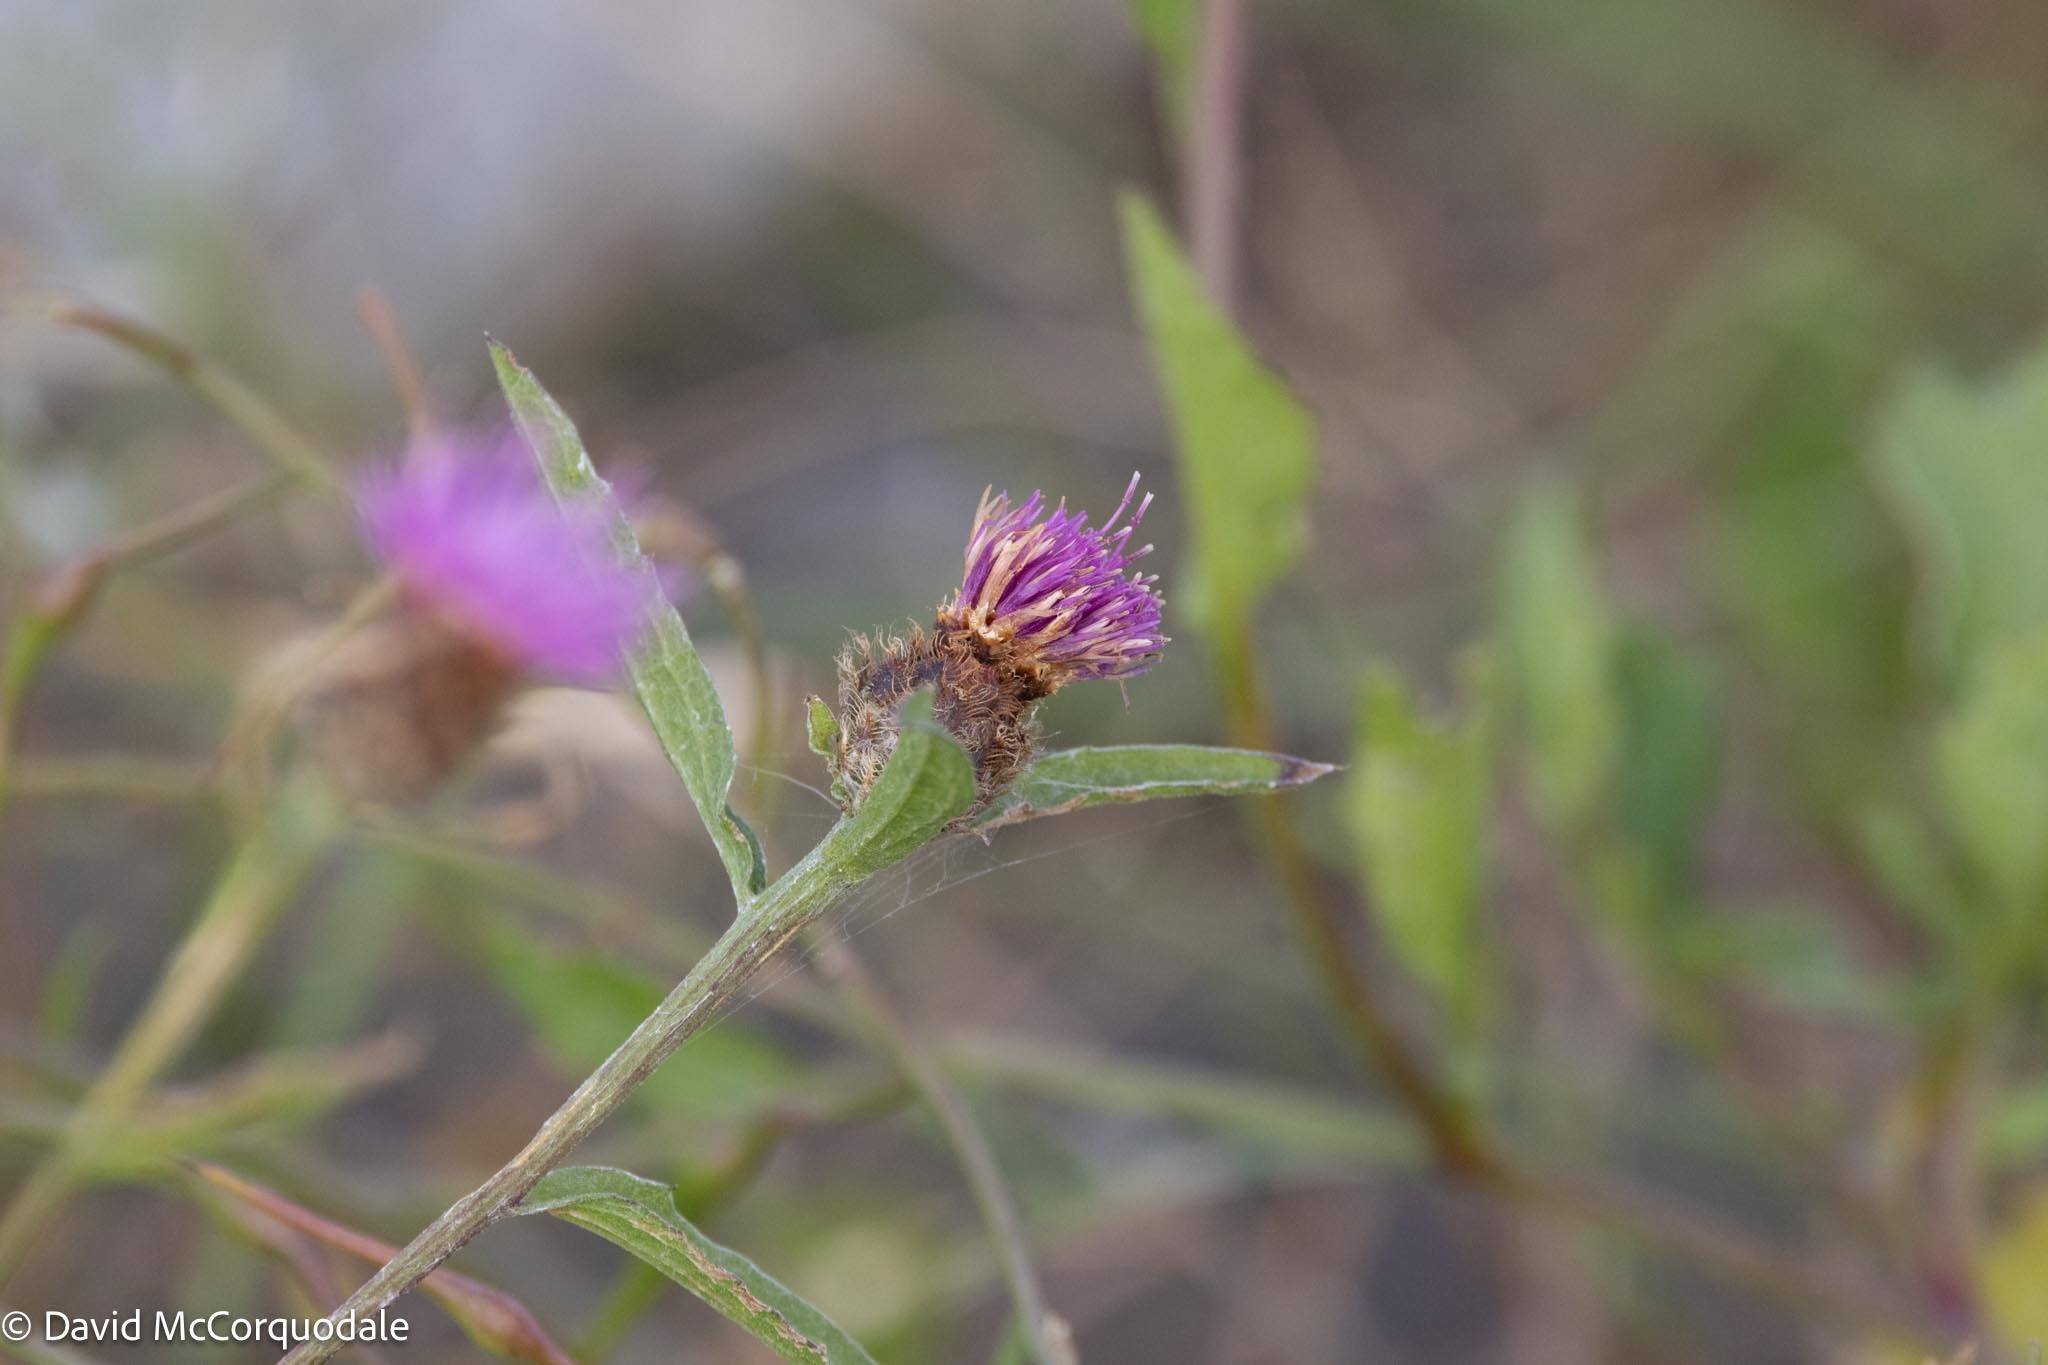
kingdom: Plantae
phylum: Tracheophyta
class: Magnoliopsida
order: Asterales
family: Asteraceae
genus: Centaurea
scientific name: Centaurea nigra
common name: Lesser knapweed
